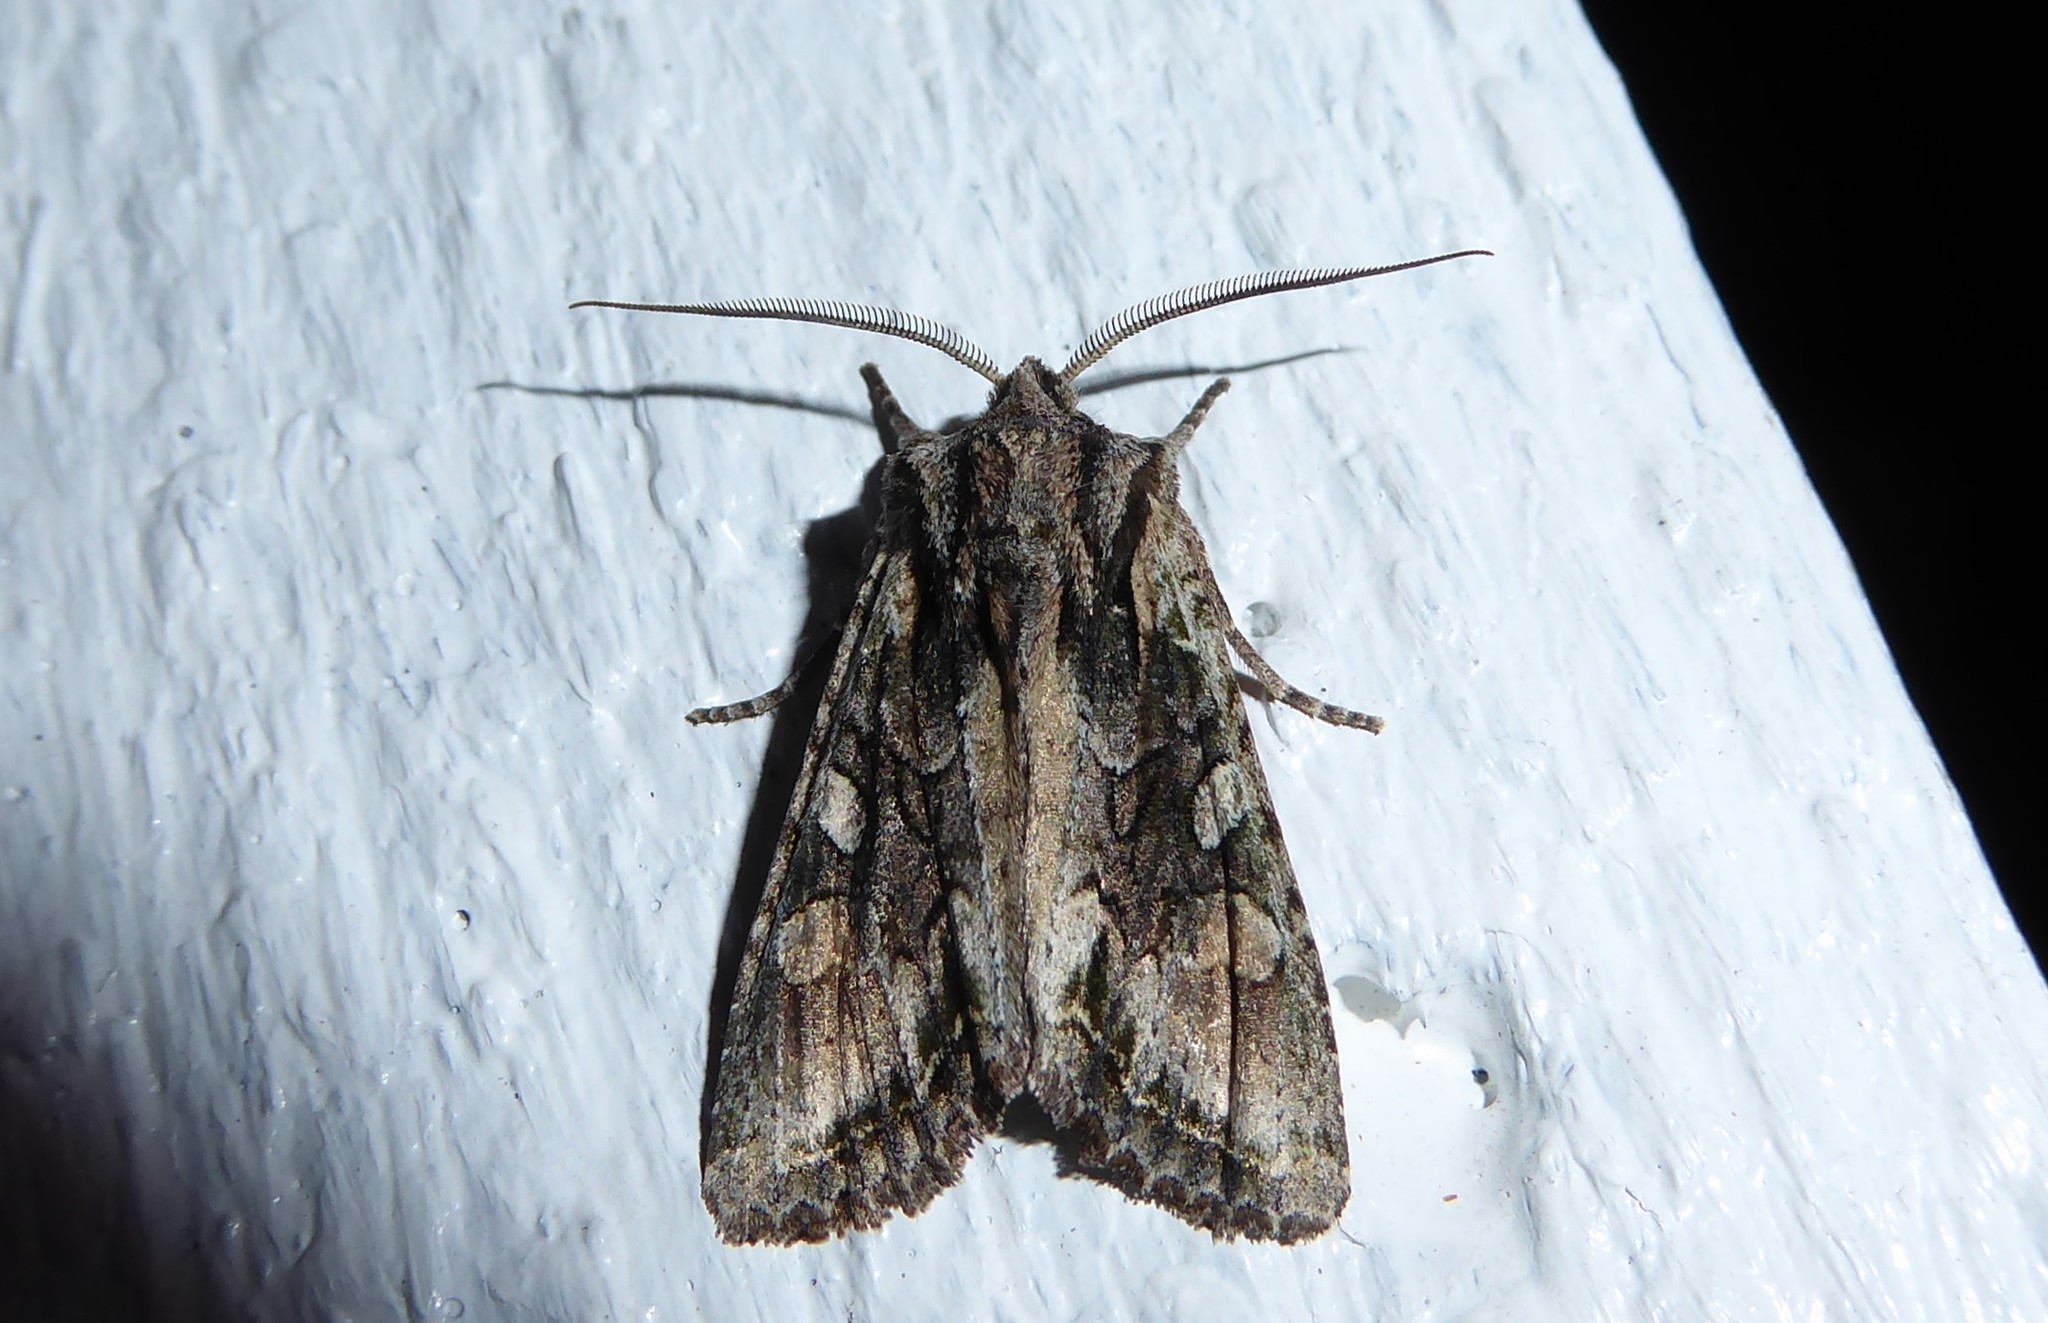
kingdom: Animalia
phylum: Arthropoda
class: Insecta
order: Lepidoptera
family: Noctuidae
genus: Ichneutica
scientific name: Ichneutica mutans
